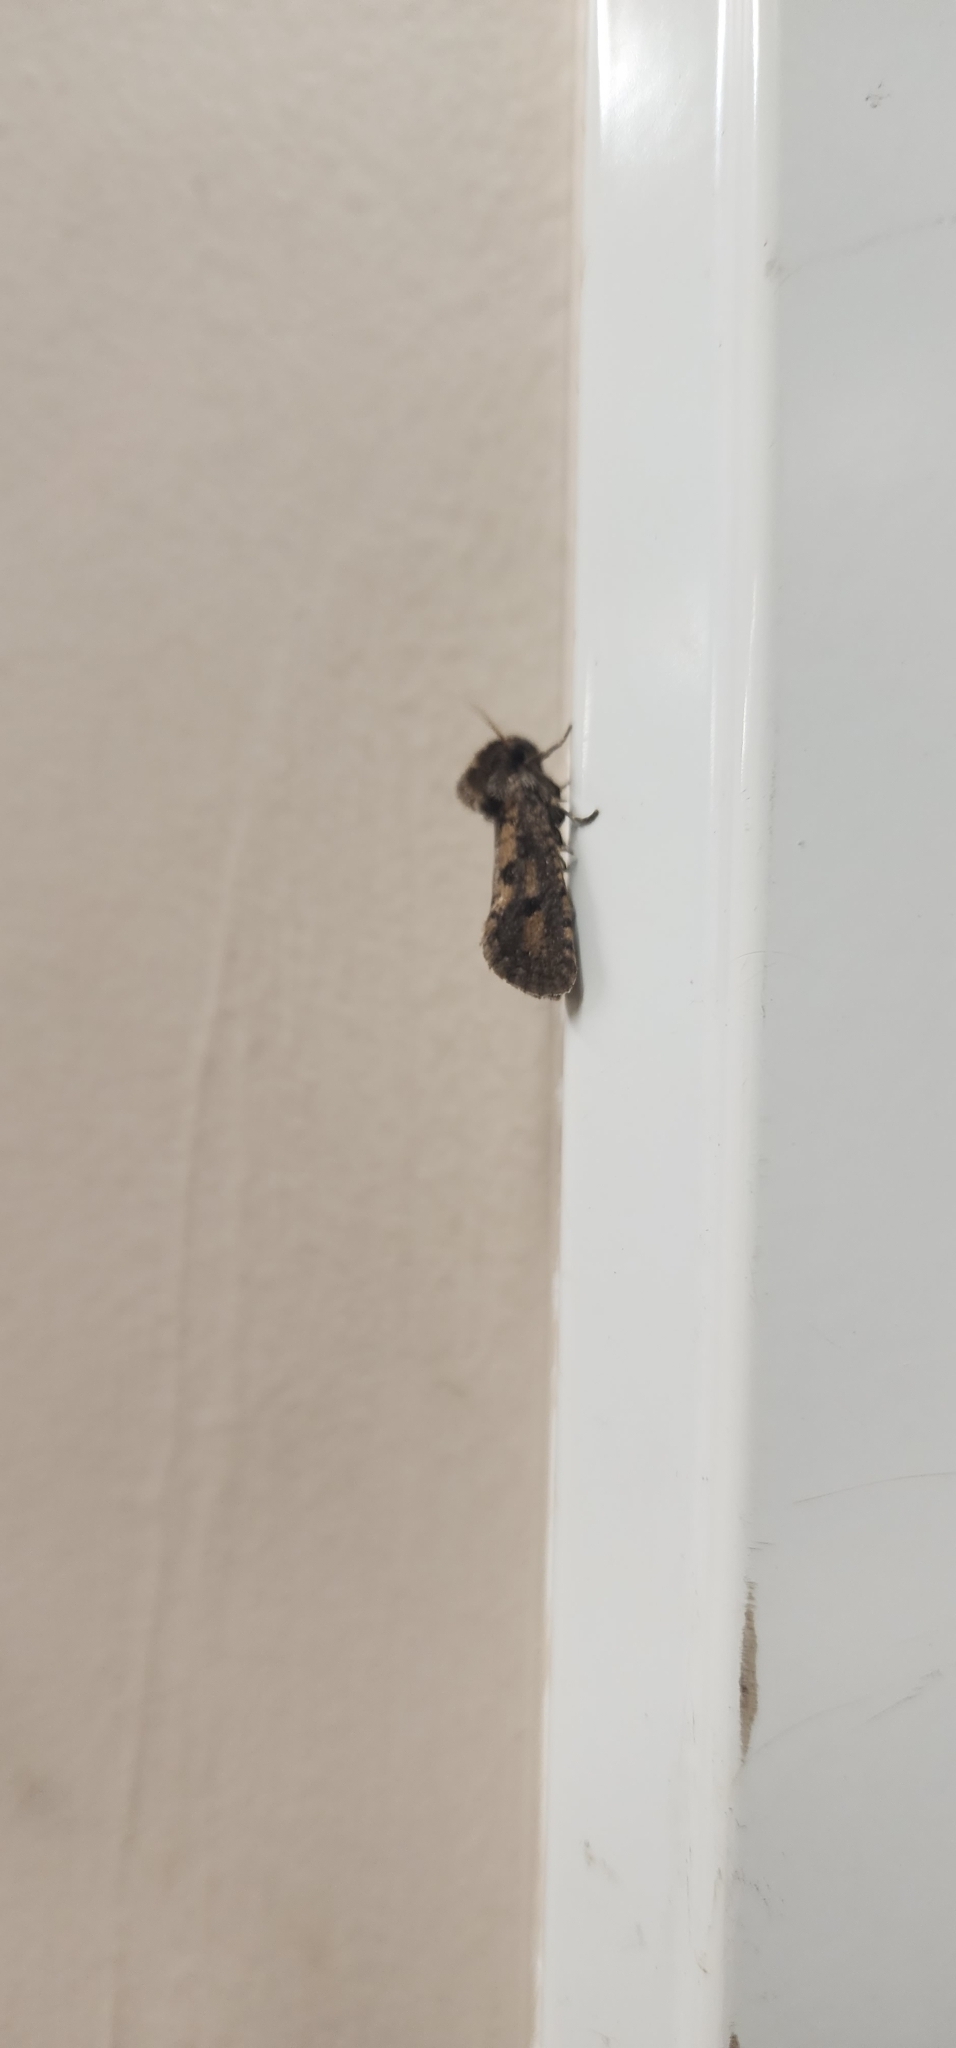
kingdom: Animalia
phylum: Arthropoda
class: Insecta
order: Lepidoptera
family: Tineidae
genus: Acrolophus
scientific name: Acrolophus popeanella
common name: Clemens' grass tubeworm moth
